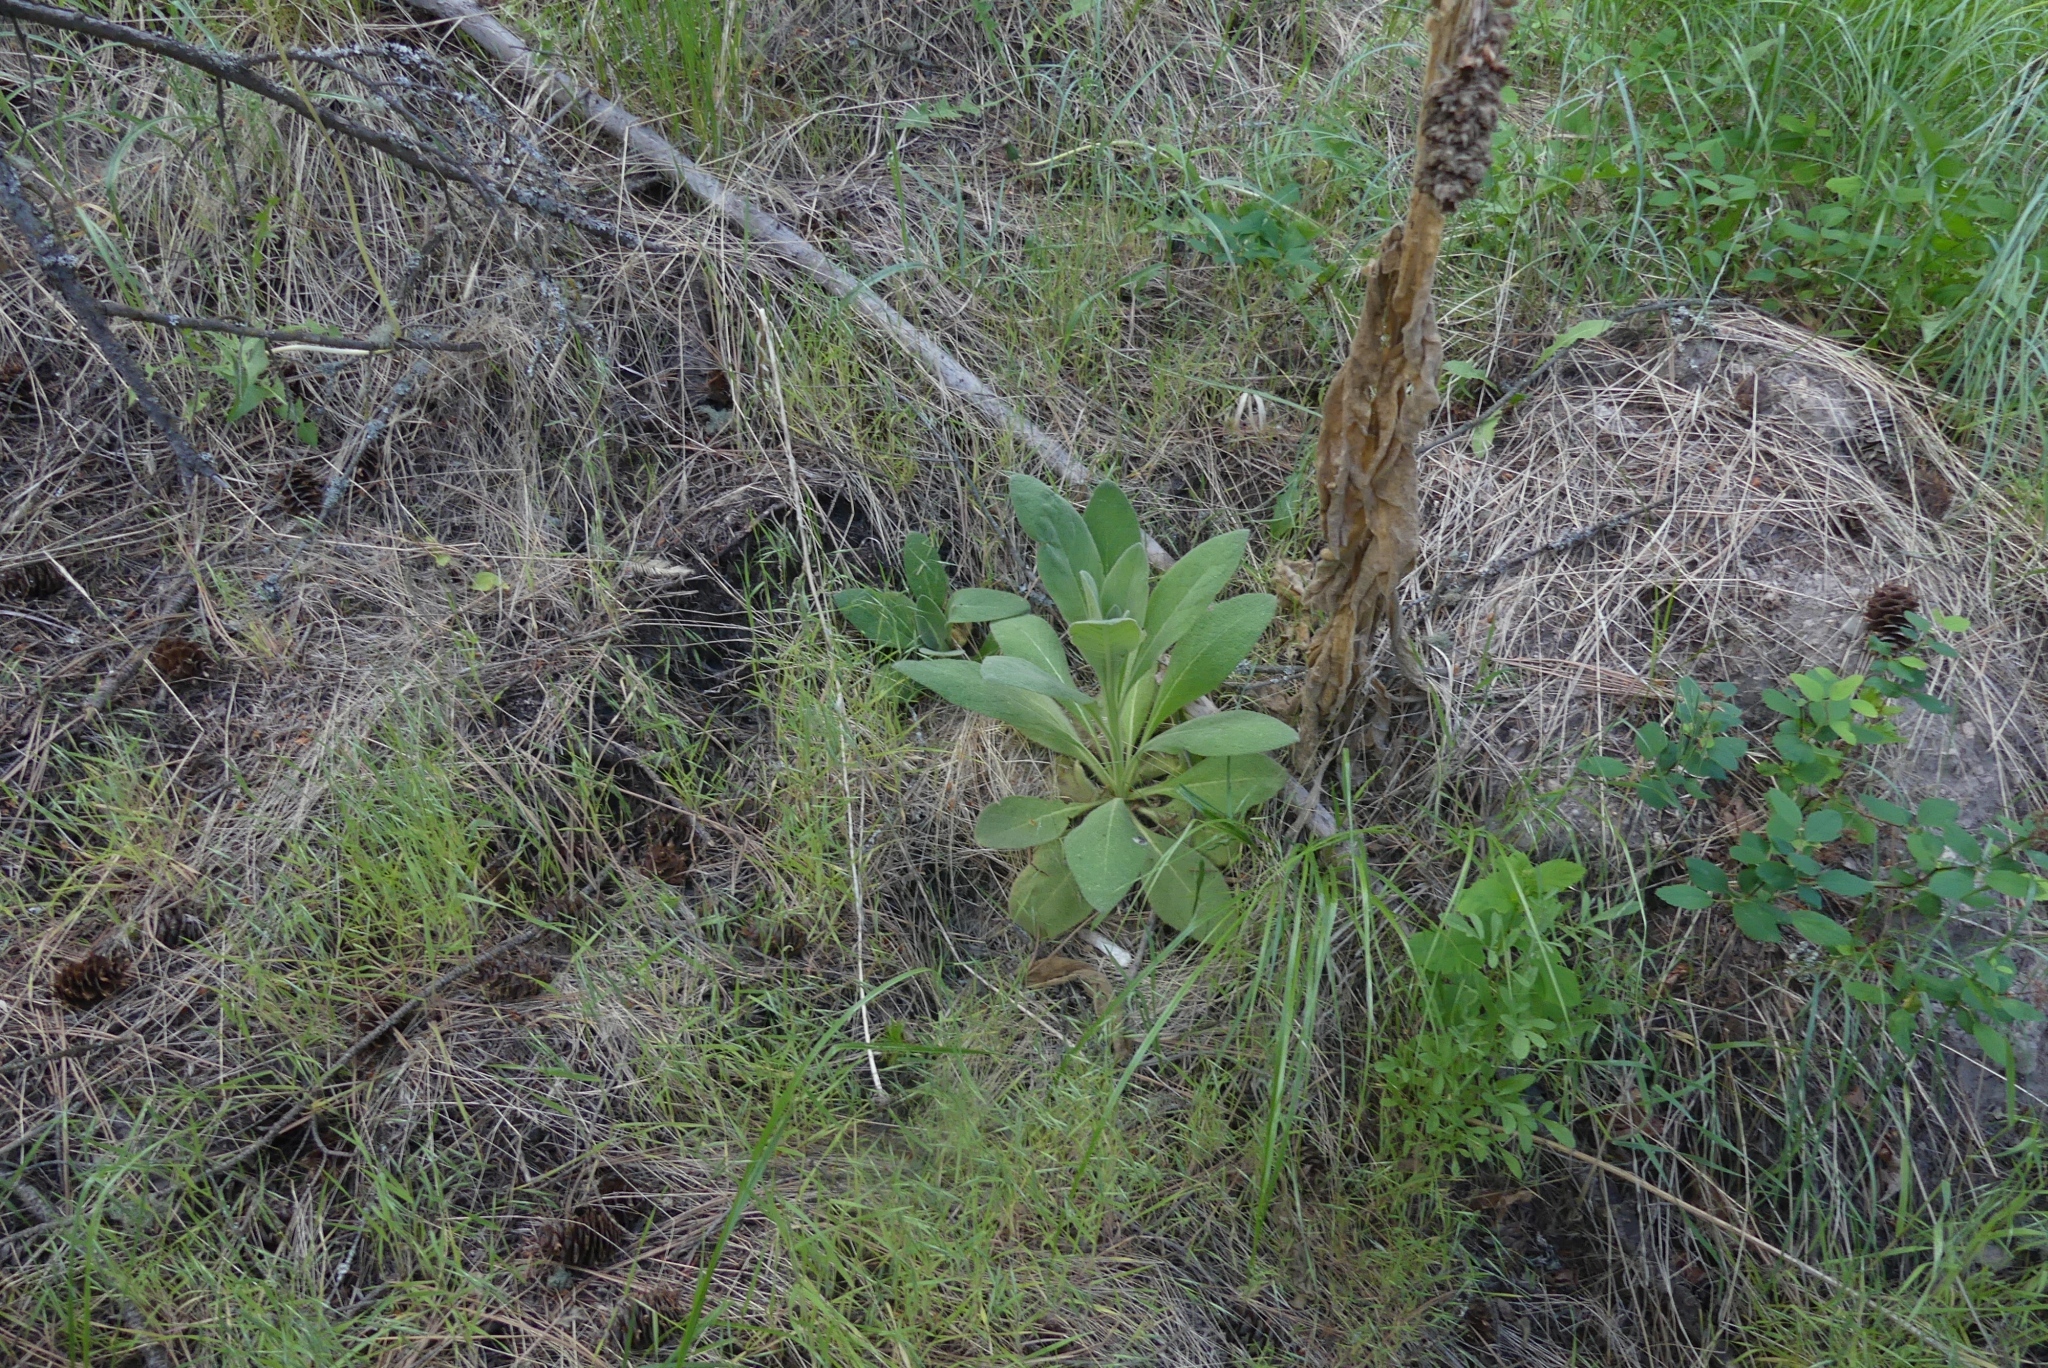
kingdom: Plantae
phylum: Tracheophyta
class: Magnoliopsida
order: Lamiales
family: Scrophulariaceae
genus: Verbascum
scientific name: Verbascum thapsus
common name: Common mullein
